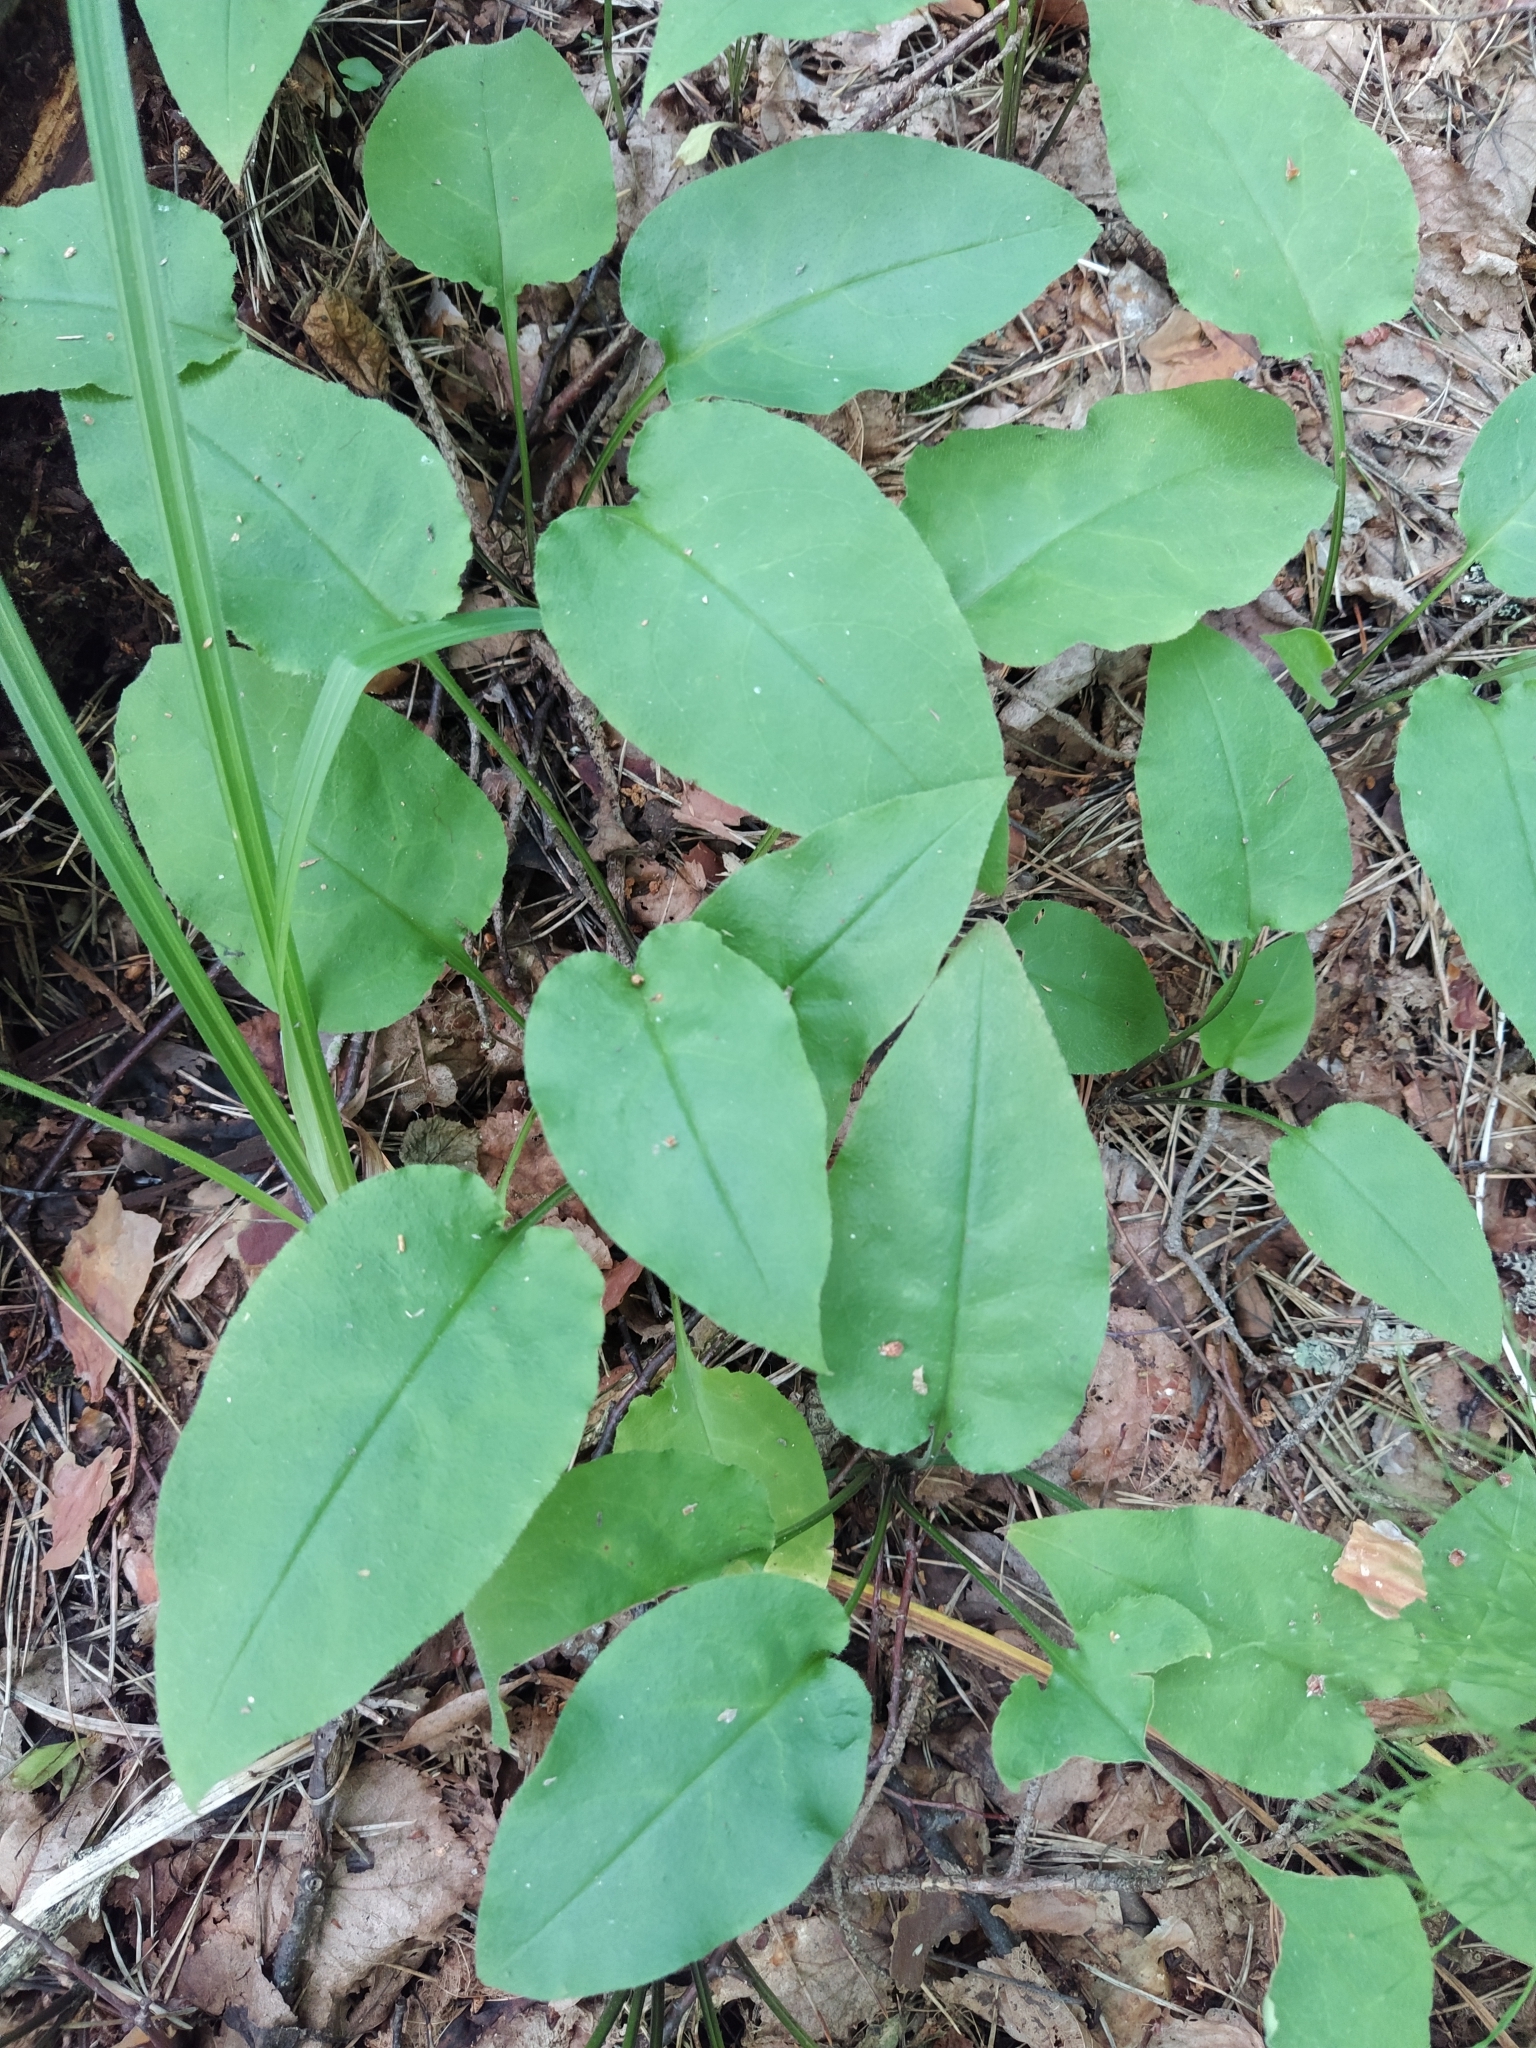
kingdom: Plantae
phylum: Tracheophyta
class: Magnoliopsida
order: Boraginales
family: Boraginaceae
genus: Pulmonaria
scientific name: Pulmonaria obscura
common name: Suffolk lungwort
